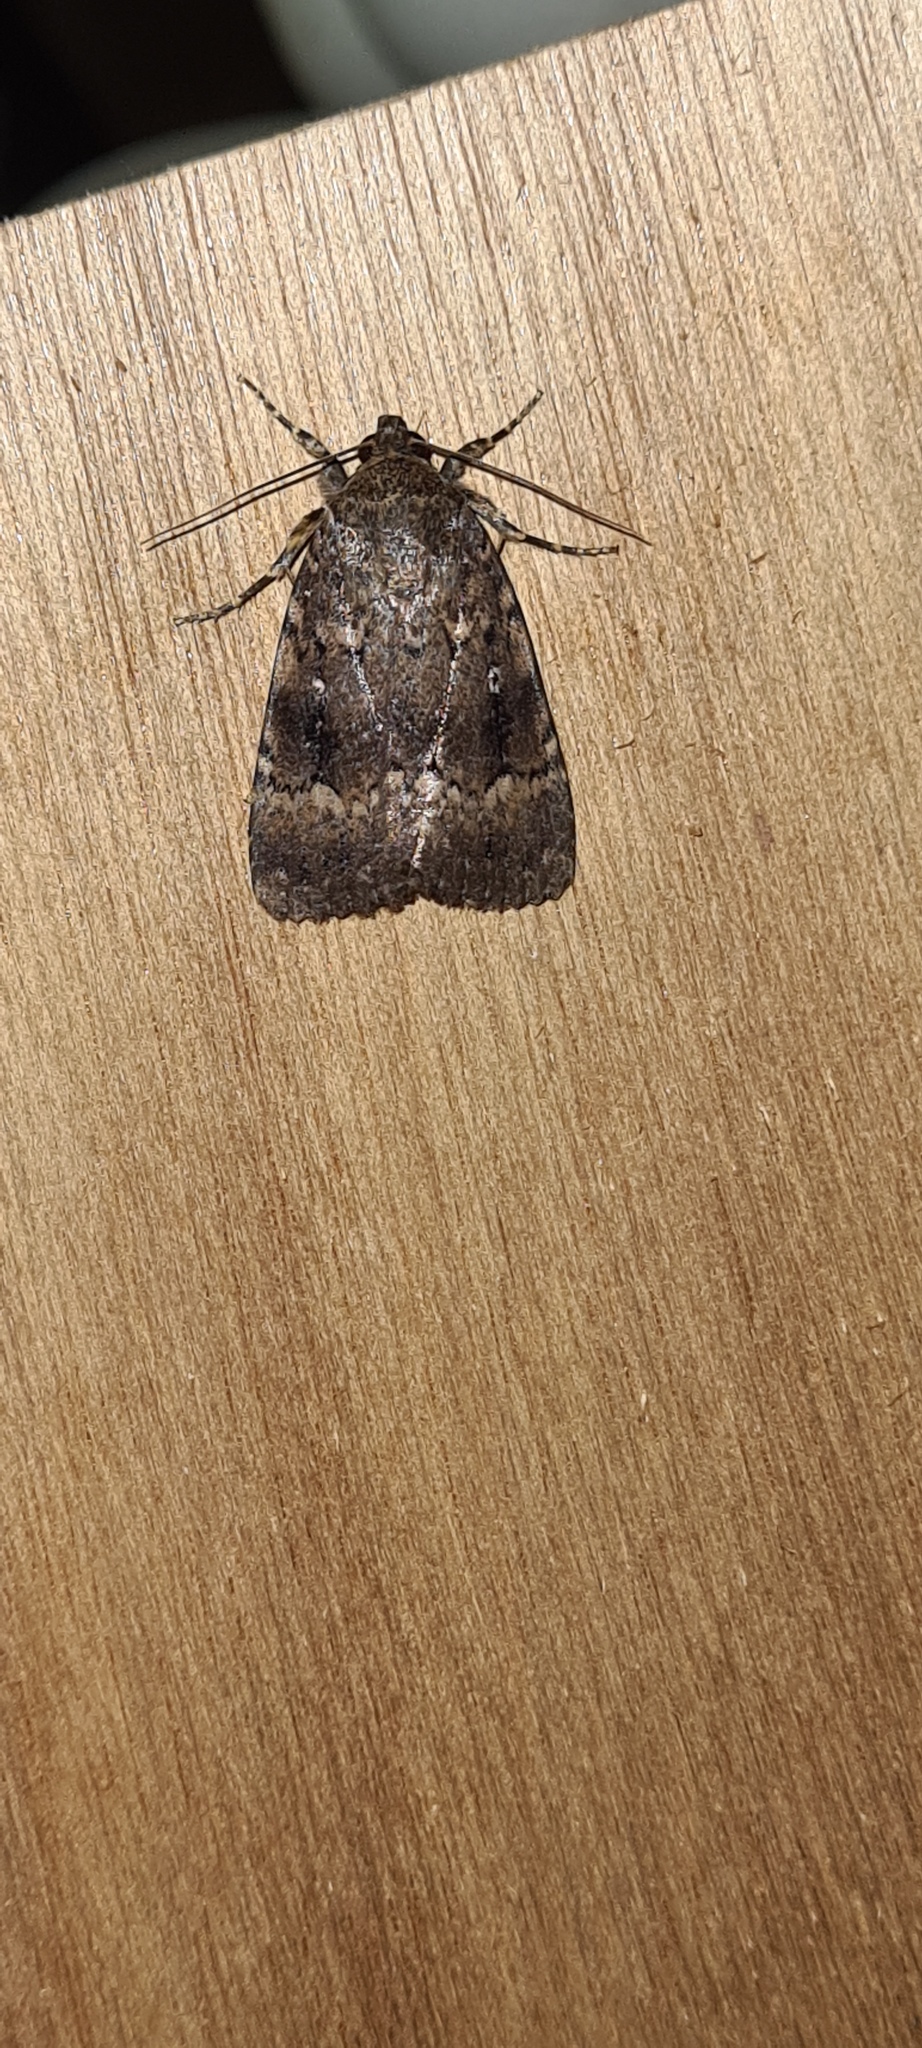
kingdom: Animalia
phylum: Arthropoda
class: Insecta
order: Lepidoptera
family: Noctuidae
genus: Amphipyra
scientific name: Amphipyra pyramidea
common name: Copper underwing
